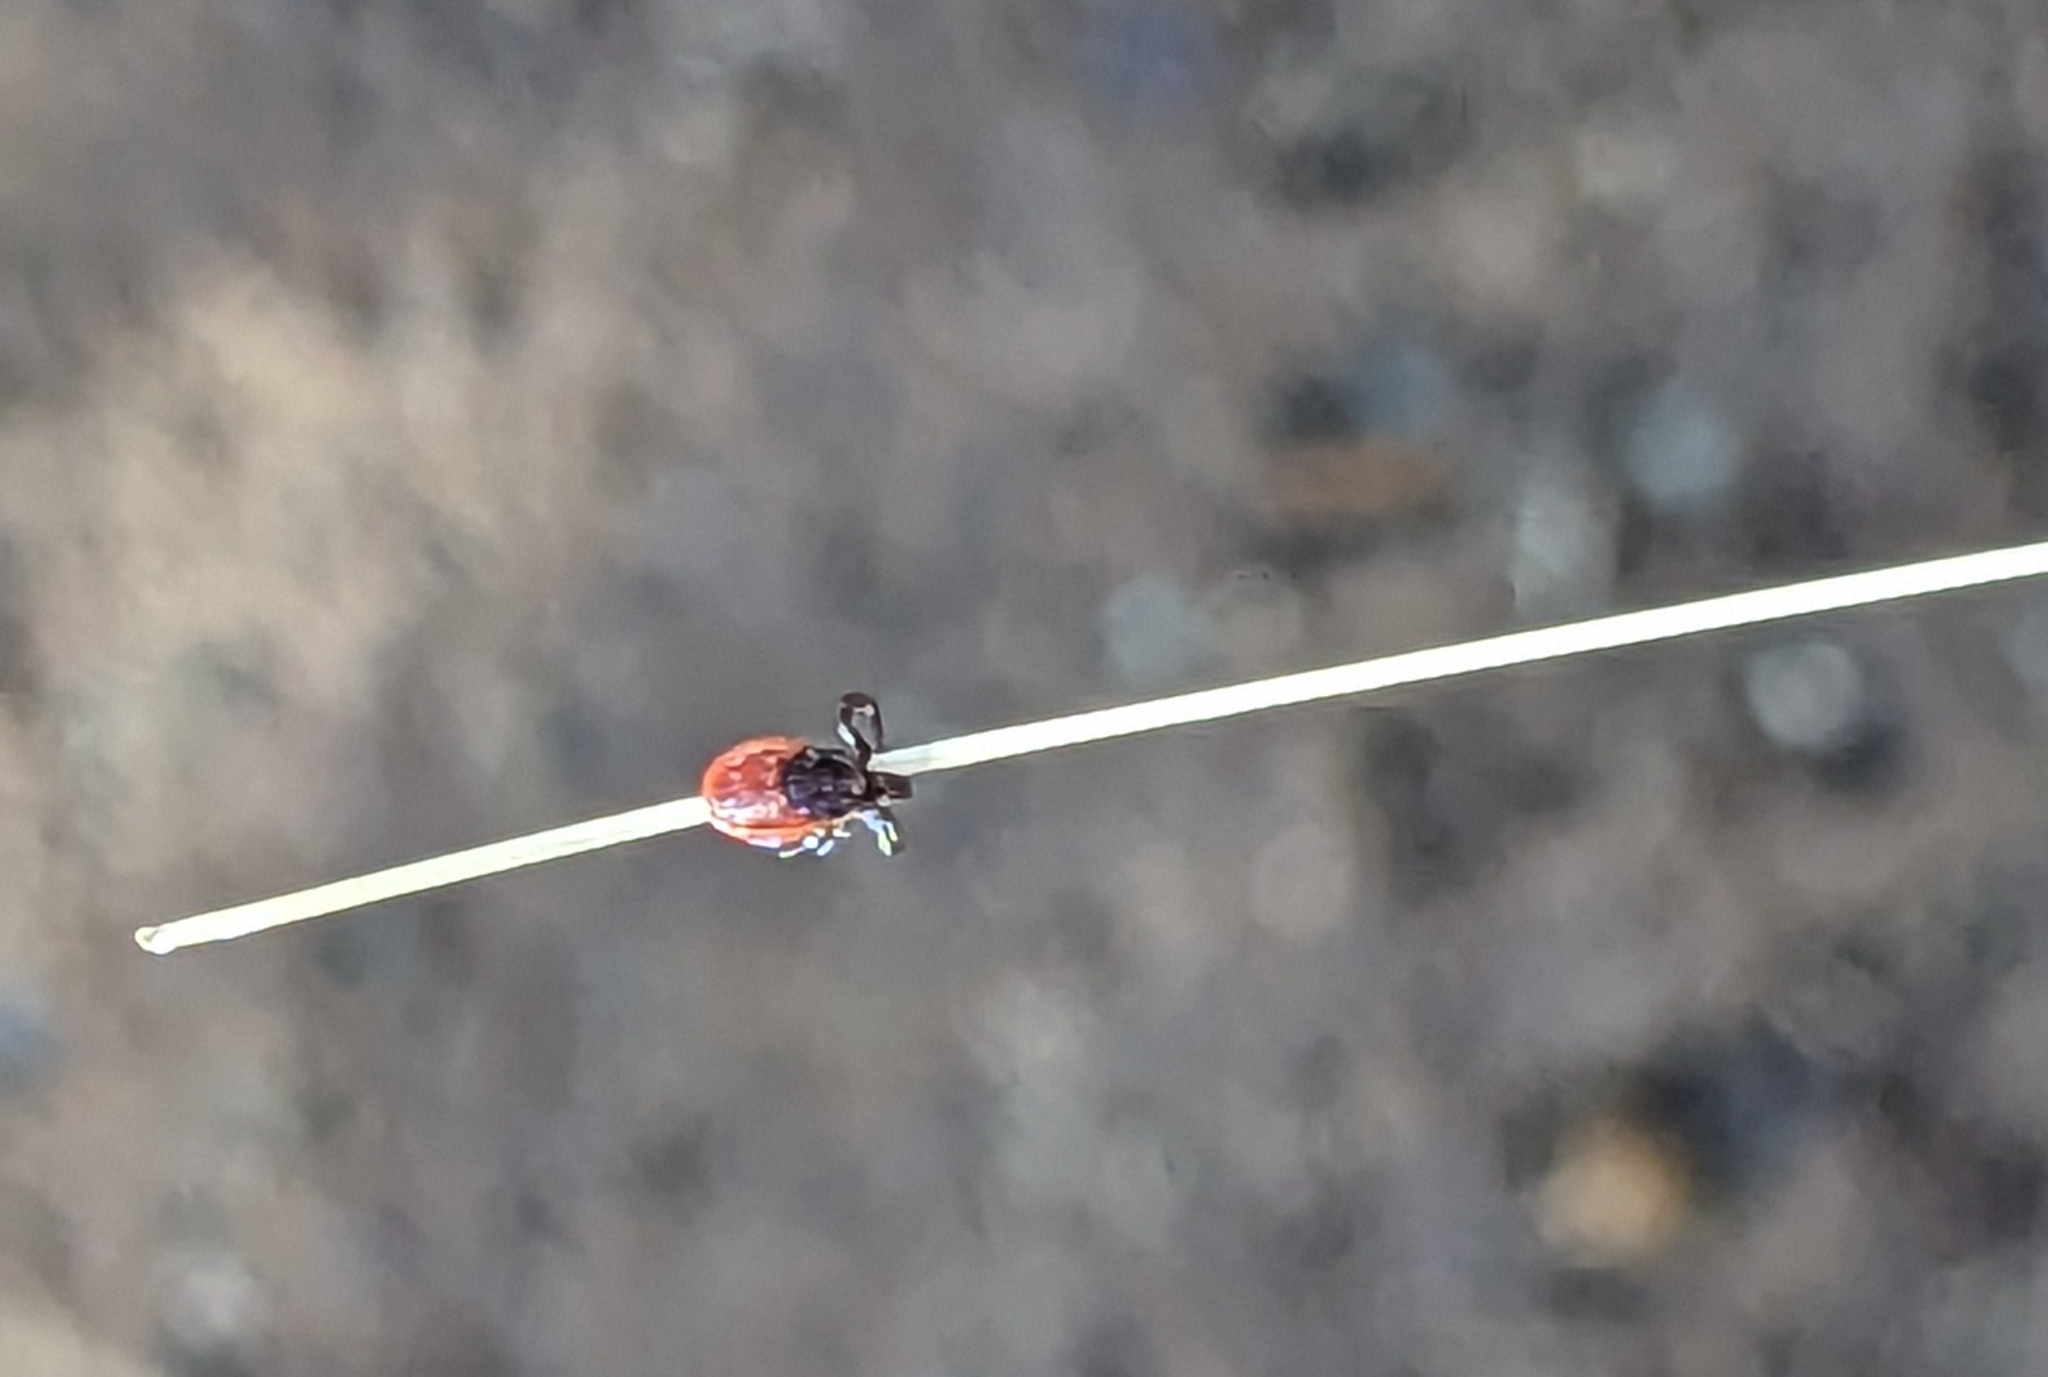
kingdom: Animalia
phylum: Arthropoda
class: Arachnida
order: Ixodida
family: Ixodidae
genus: Ixodes
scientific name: Ixodes pacificus
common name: California black-legged tick
